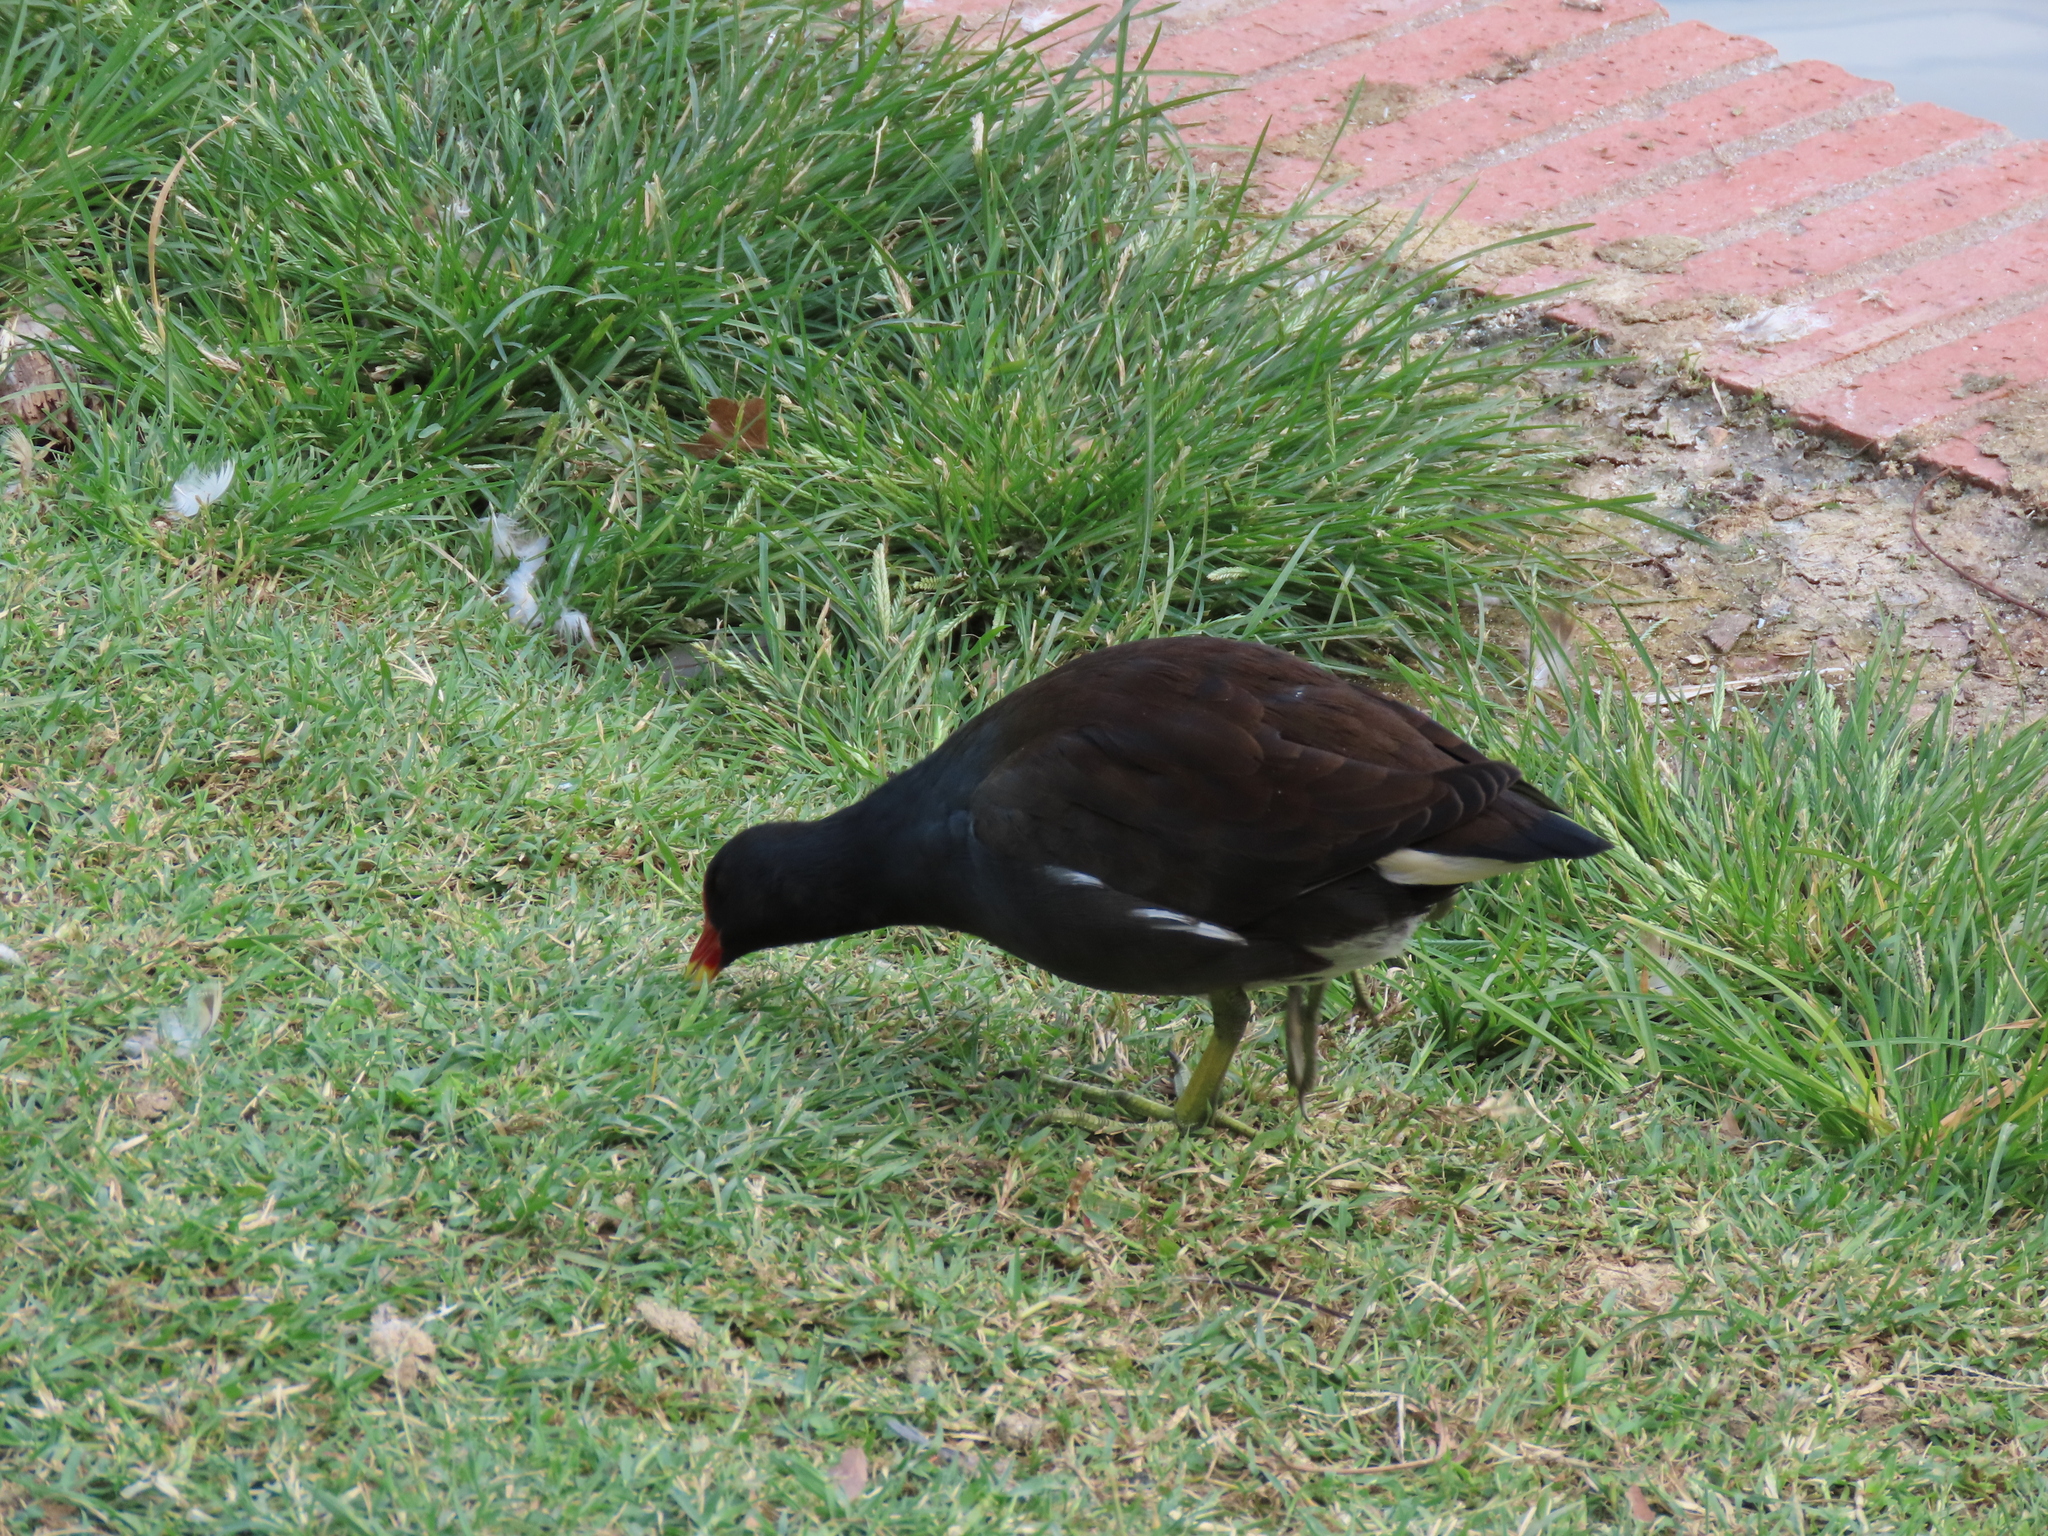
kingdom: Animalia
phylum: Chordata
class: Aves
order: Gruiformes
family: Rallidae
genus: Gallinula
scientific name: Gallinula chloropus
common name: Common moorhen
